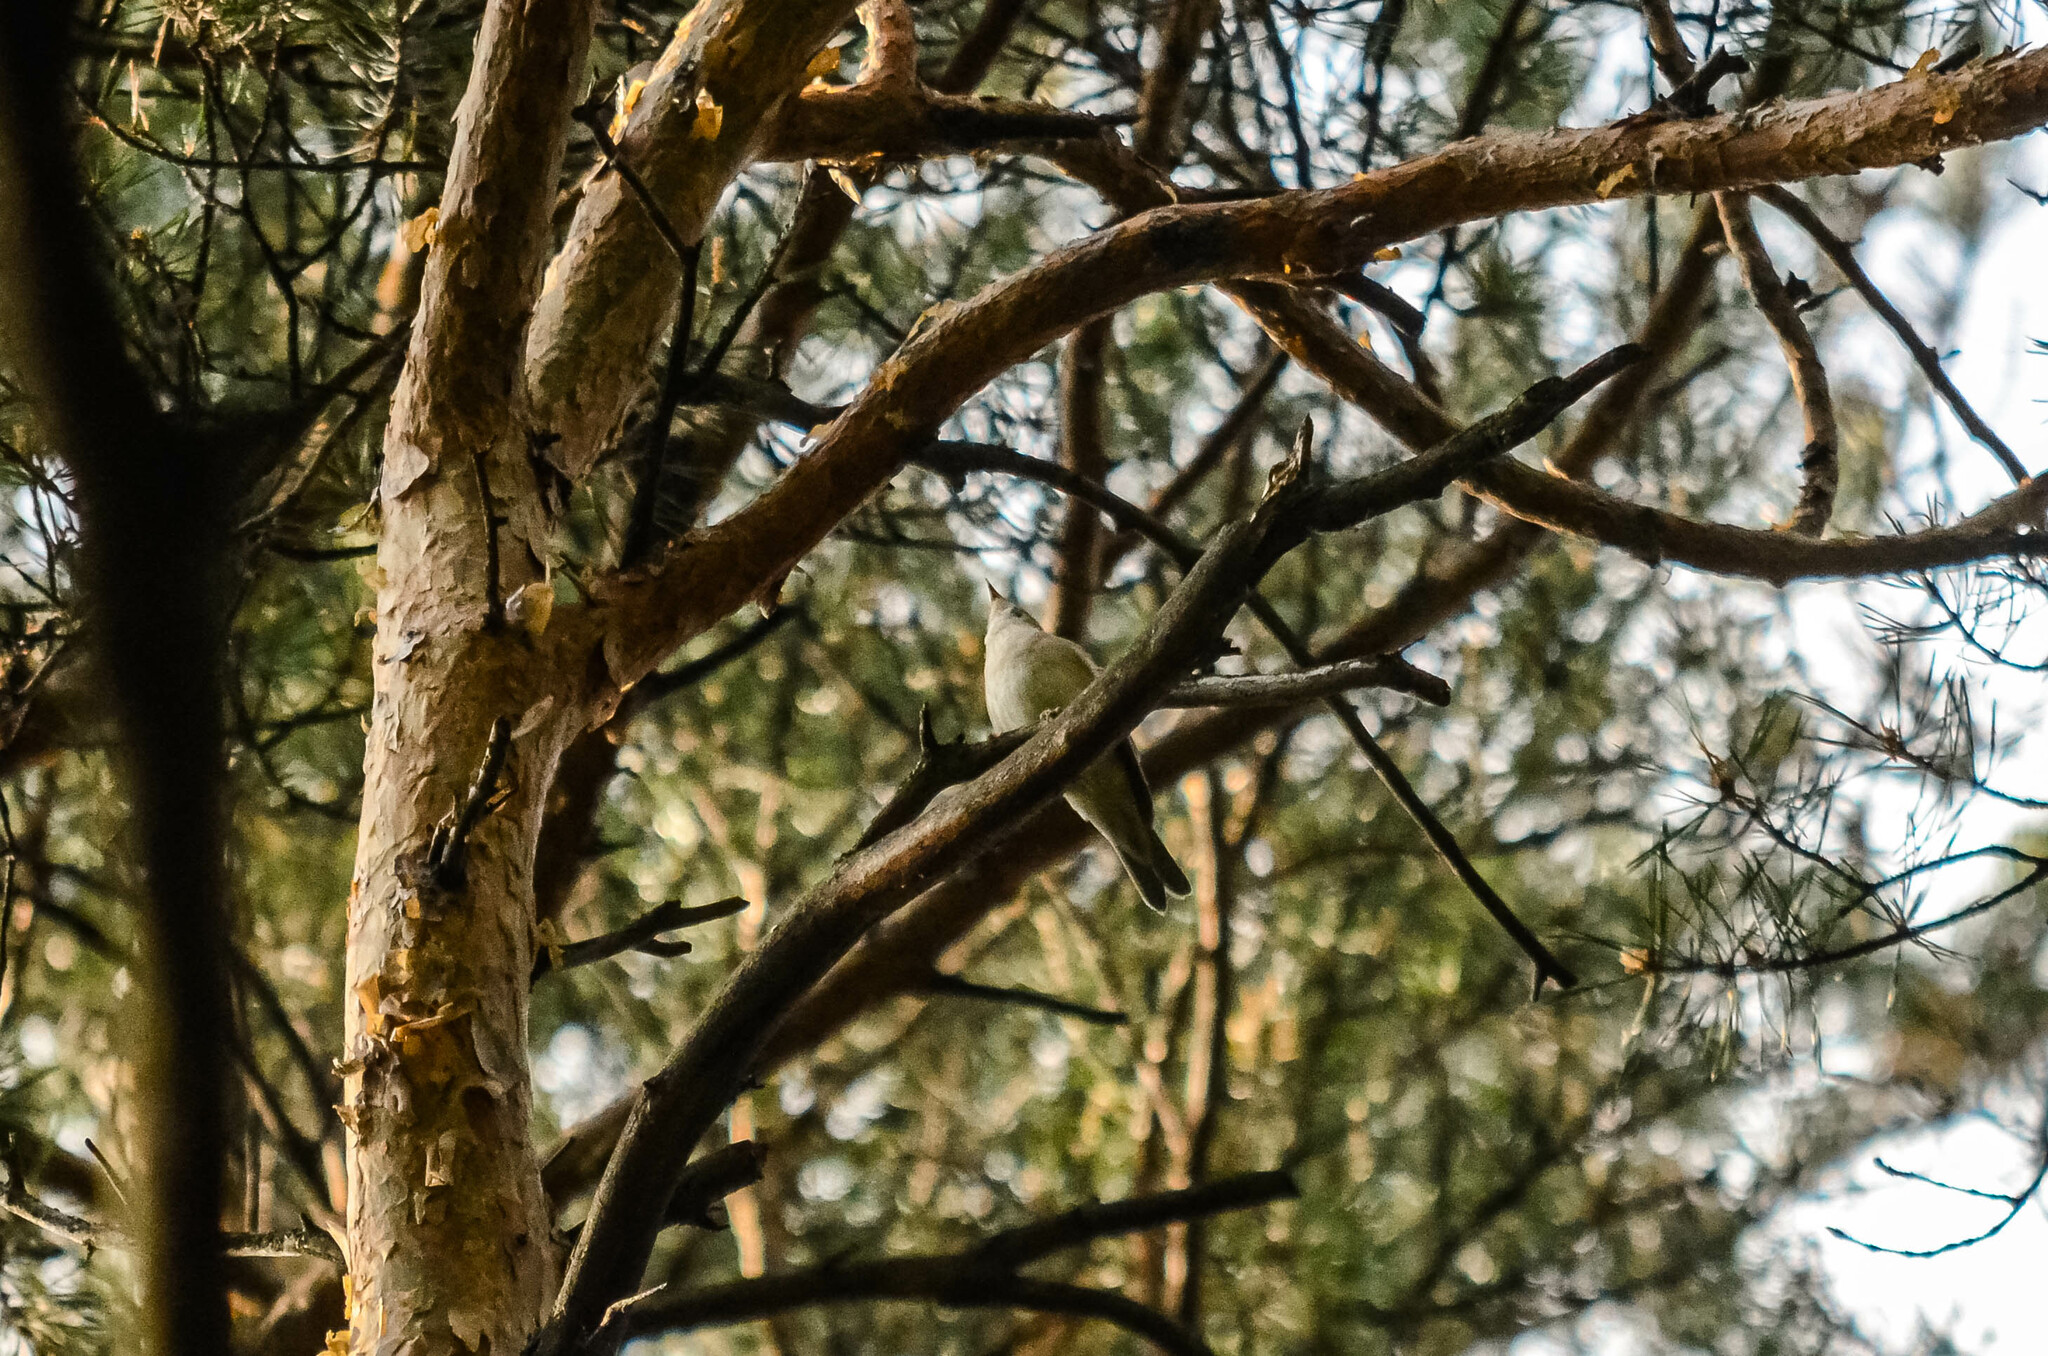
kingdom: Animalia
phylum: Chordata
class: Aves
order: Passeriformes
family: Sylviidae
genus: Sylvia
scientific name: Sylvia borin
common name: Garden warbler
